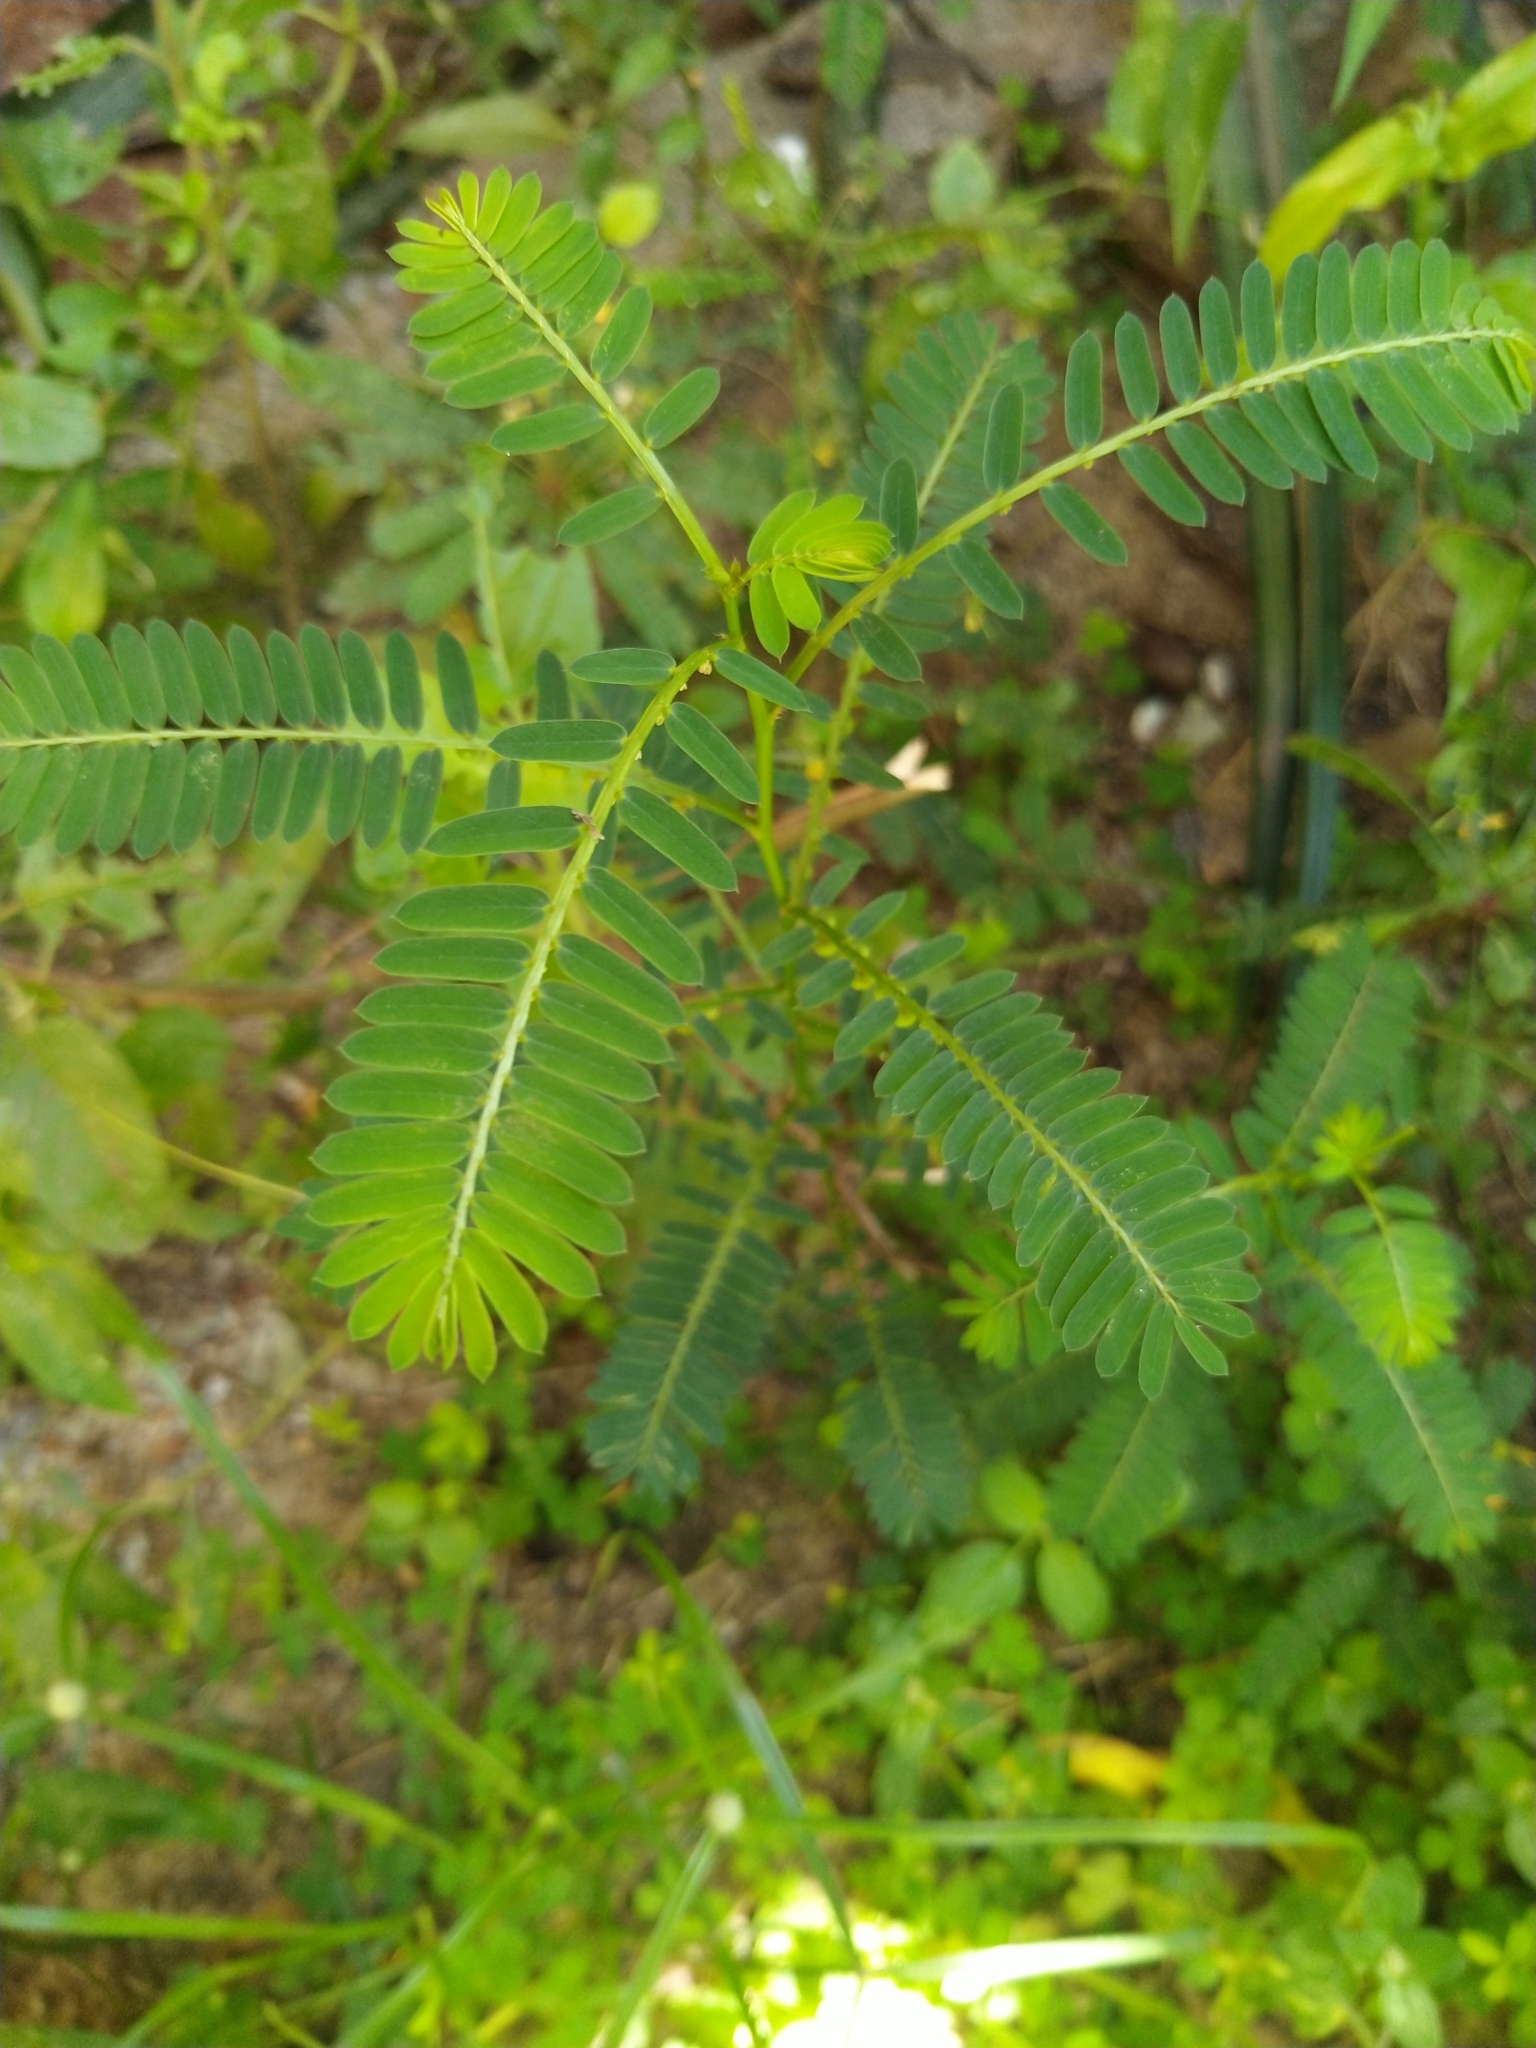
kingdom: Plantae
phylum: Tracheophyta
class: Magnoliopsida
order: Malpighiales
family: Phyllanthaceae
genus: Phyllanthus
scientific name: Phyllanthus urinaria
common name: Chamber bitter
